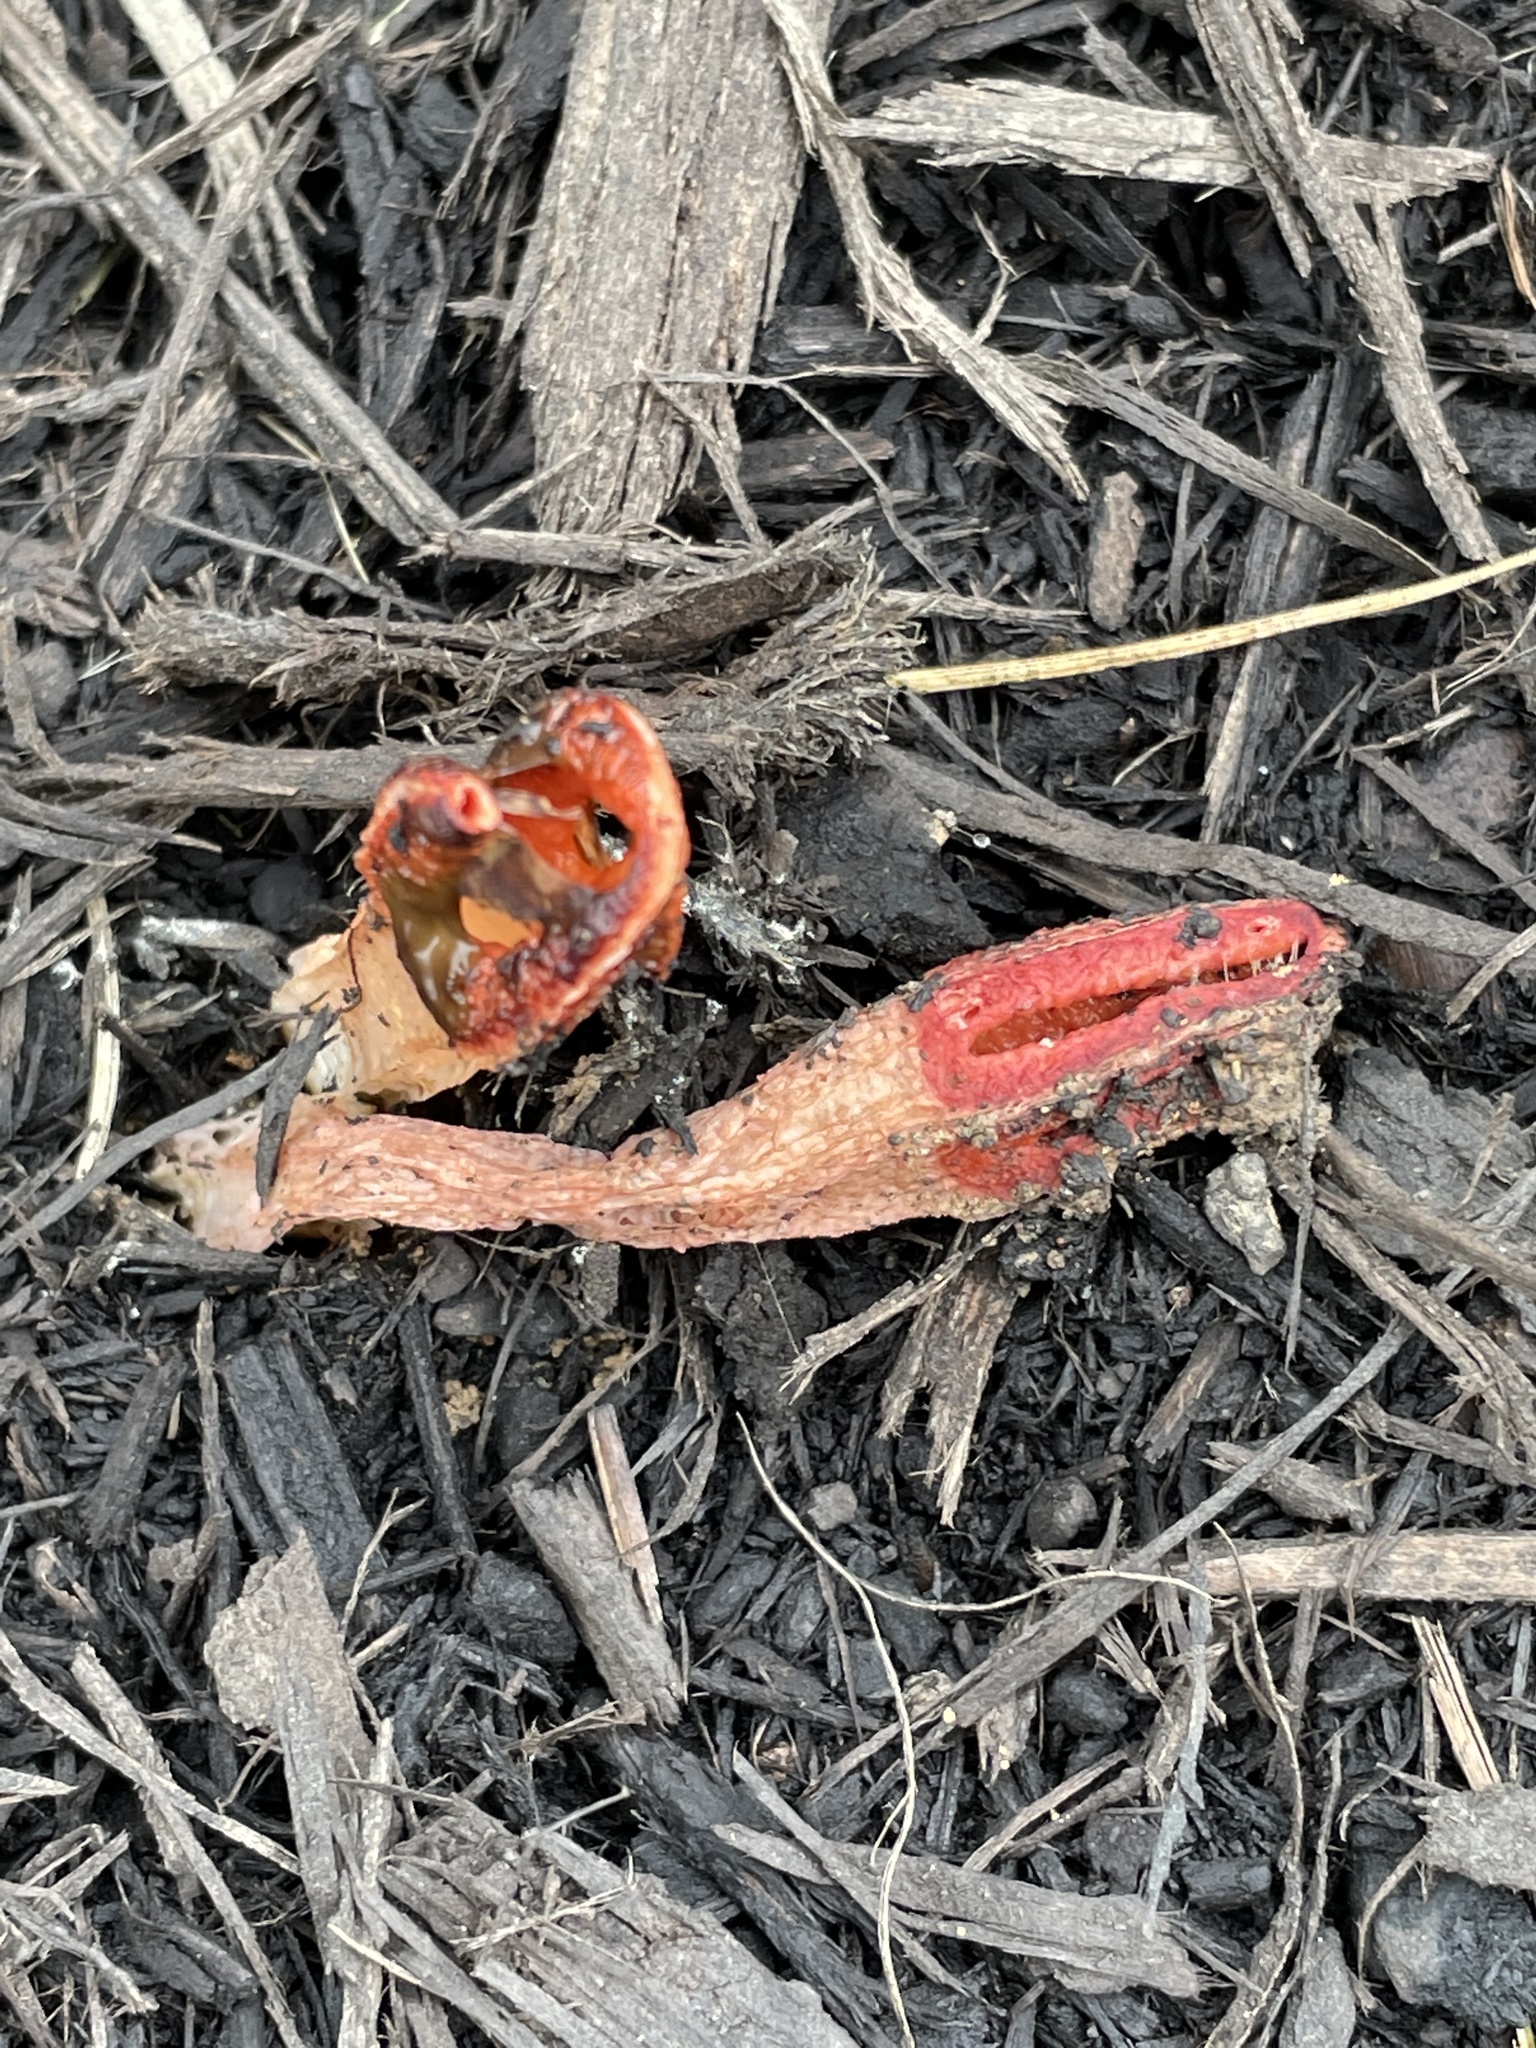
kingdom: Fungi
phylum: Basidiomycota
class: Agaricomycetes
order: Phallales
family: Phallaceae
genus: Lysurus
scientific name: Lysurus mokusin
